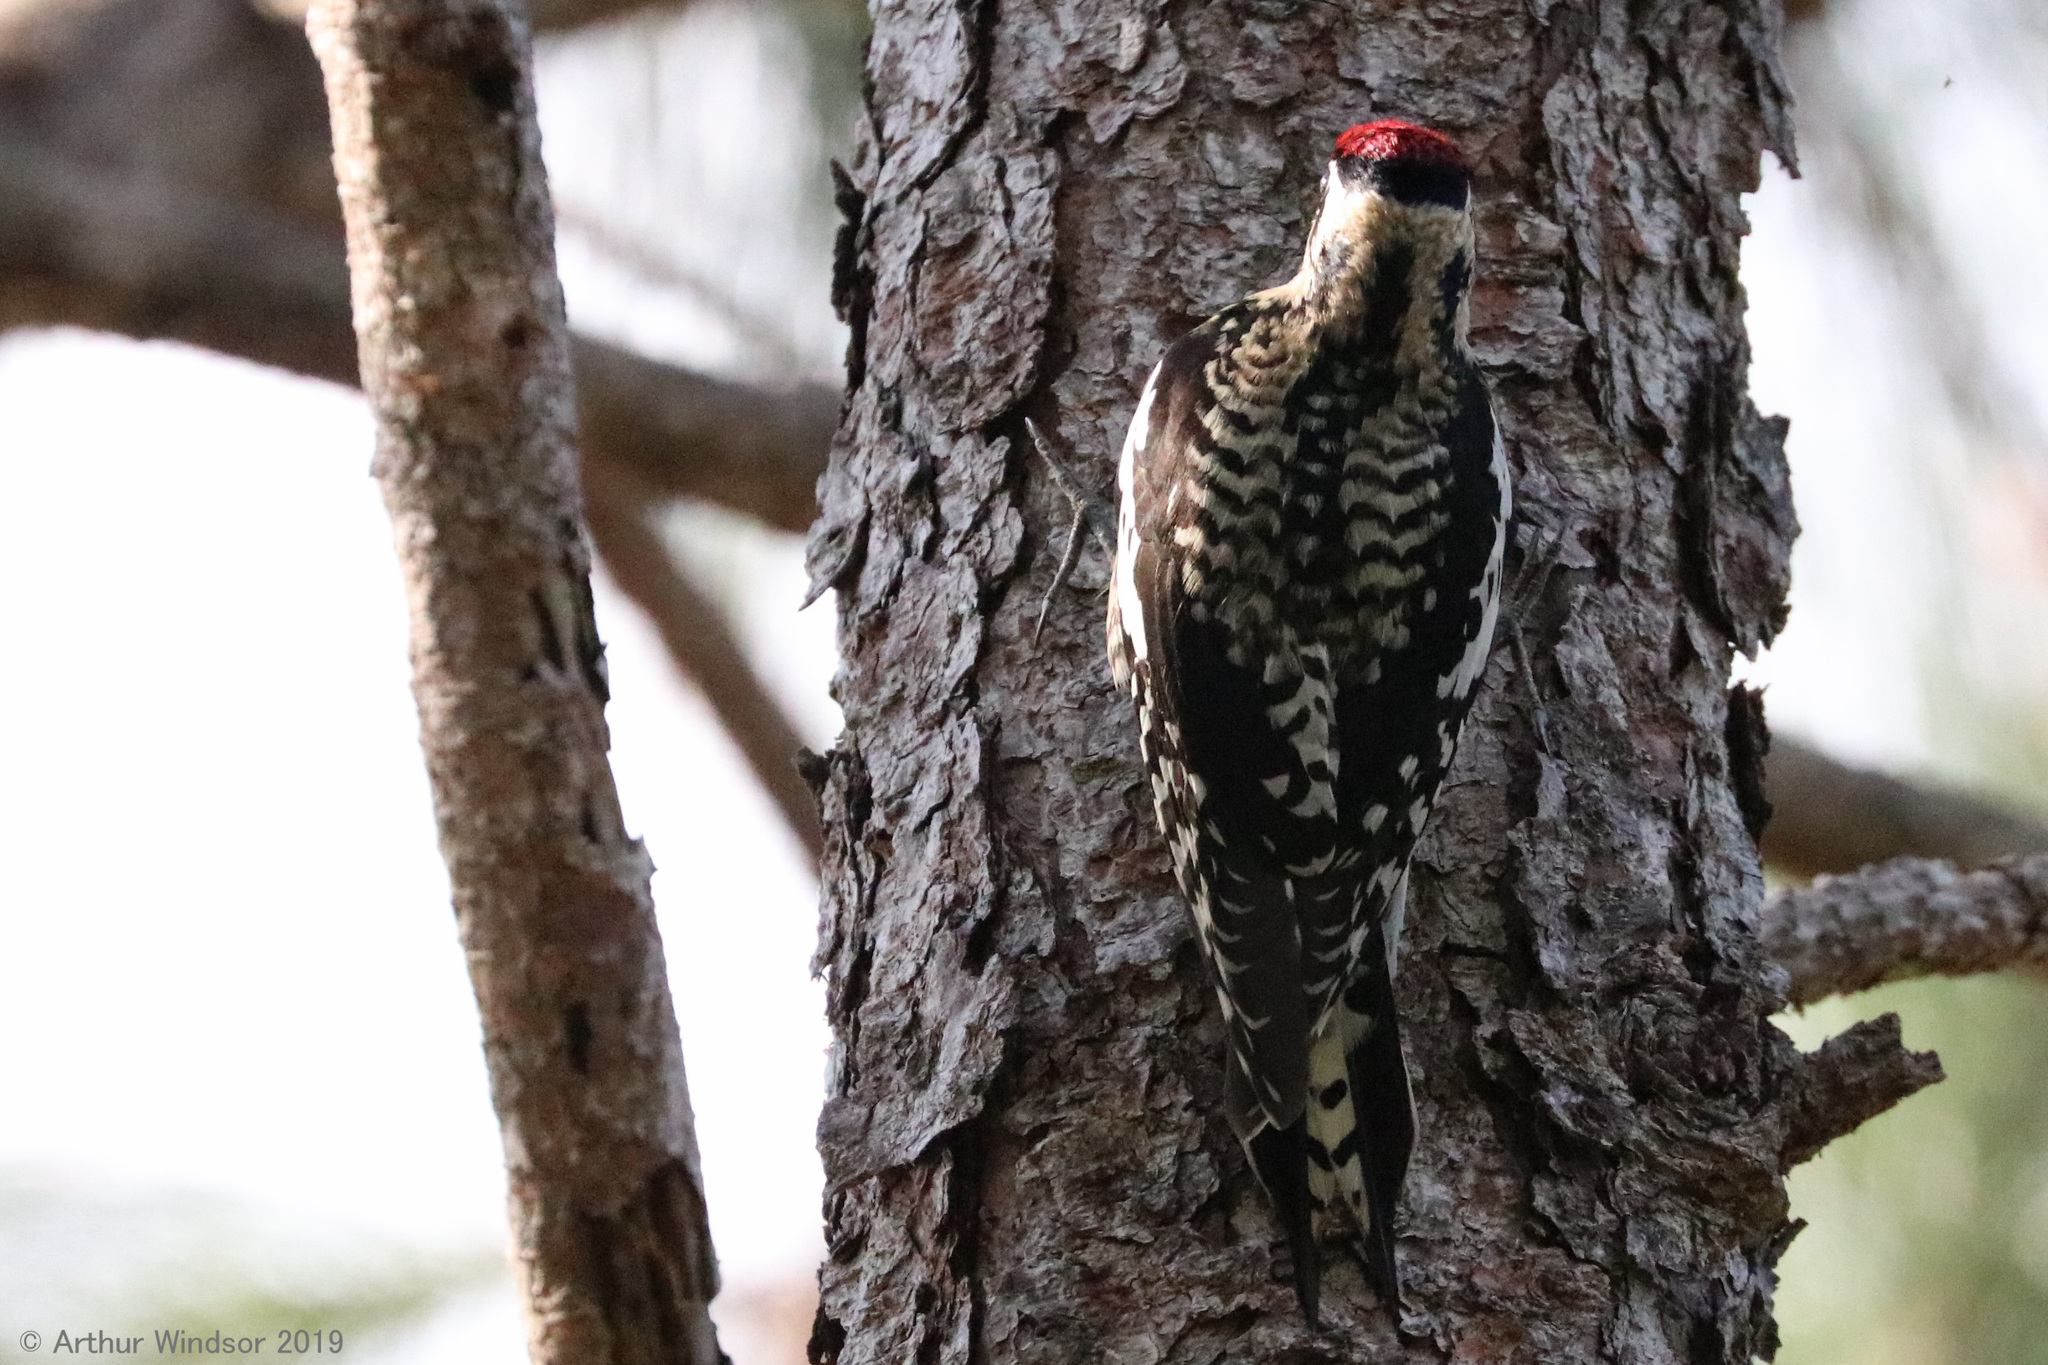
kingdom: Animalia
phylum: Chordata
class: Aves
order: Piciformes
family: Picidae
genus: Sphyrapicus
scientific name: Sphyrapicus varius
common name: Yellow-bellied sapsucker
